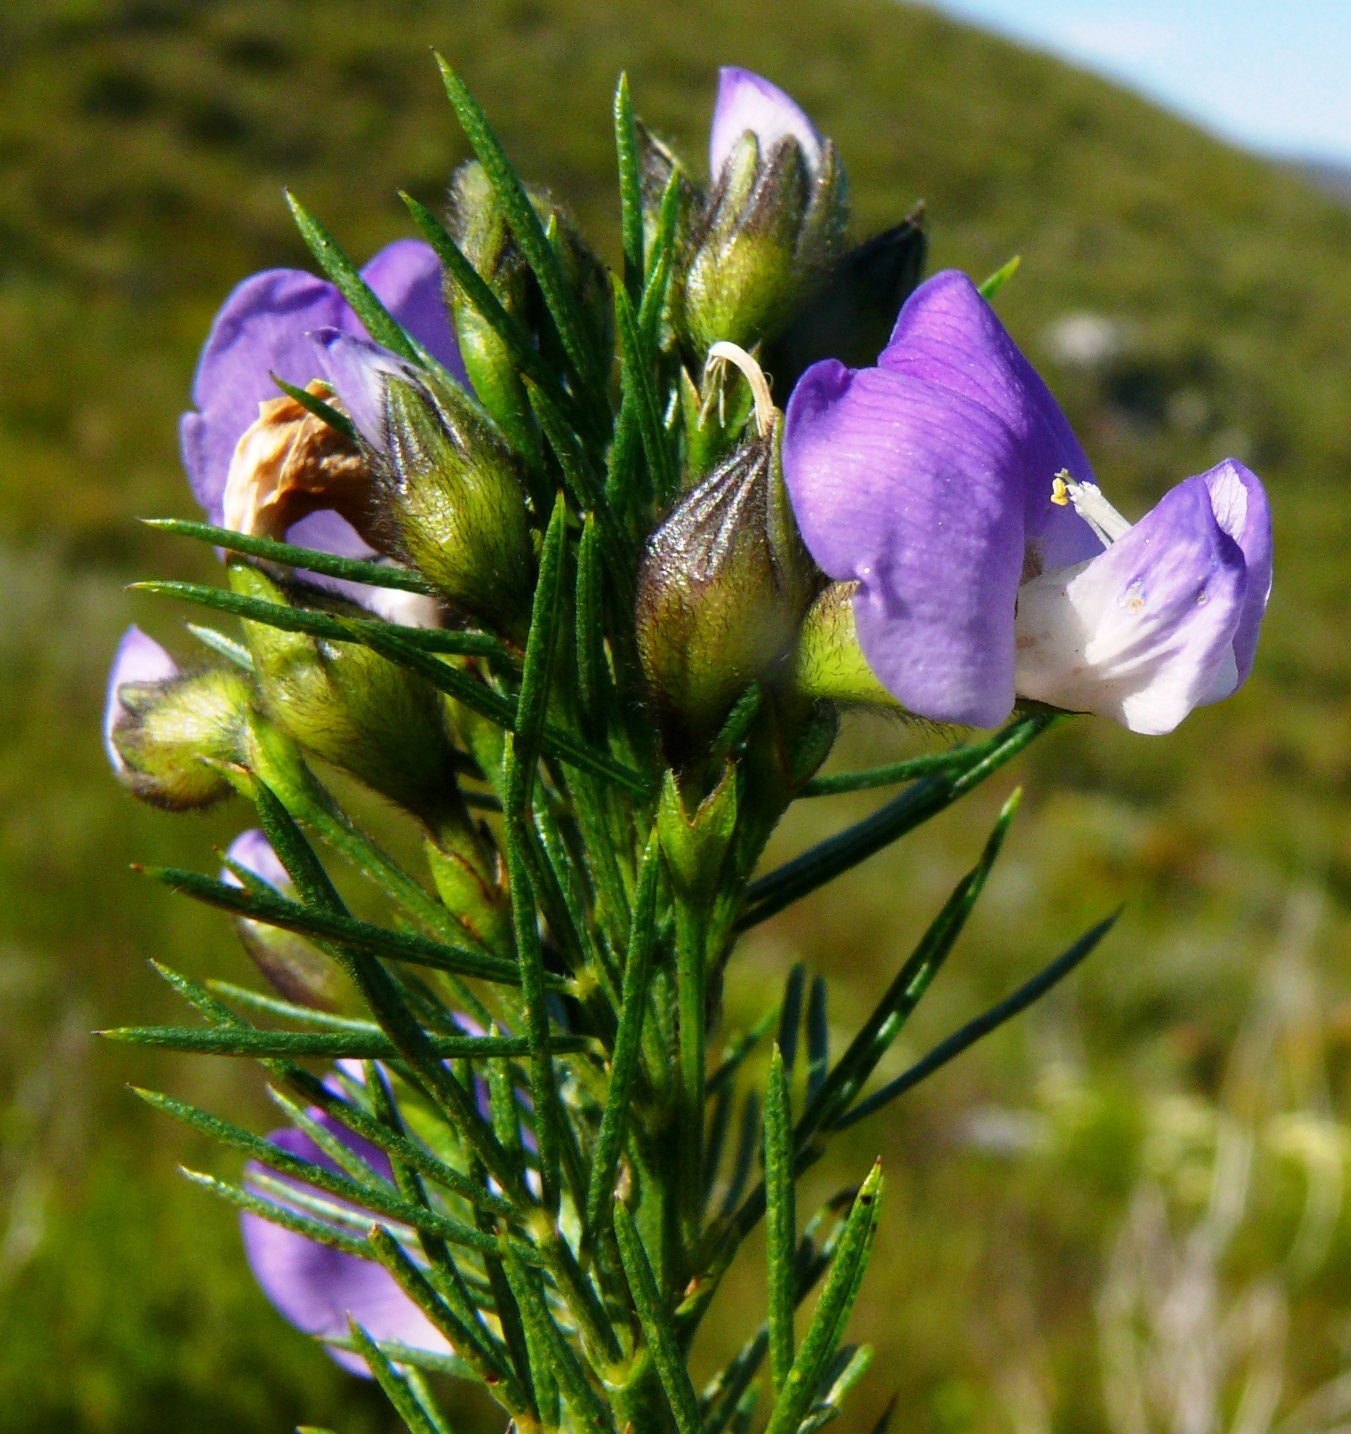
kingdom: Plantae
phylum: Tracheophyta
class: Magnoliopsida
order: Fabales
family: Fabaceae
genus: Psoralea
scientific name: Psoralea affinis
